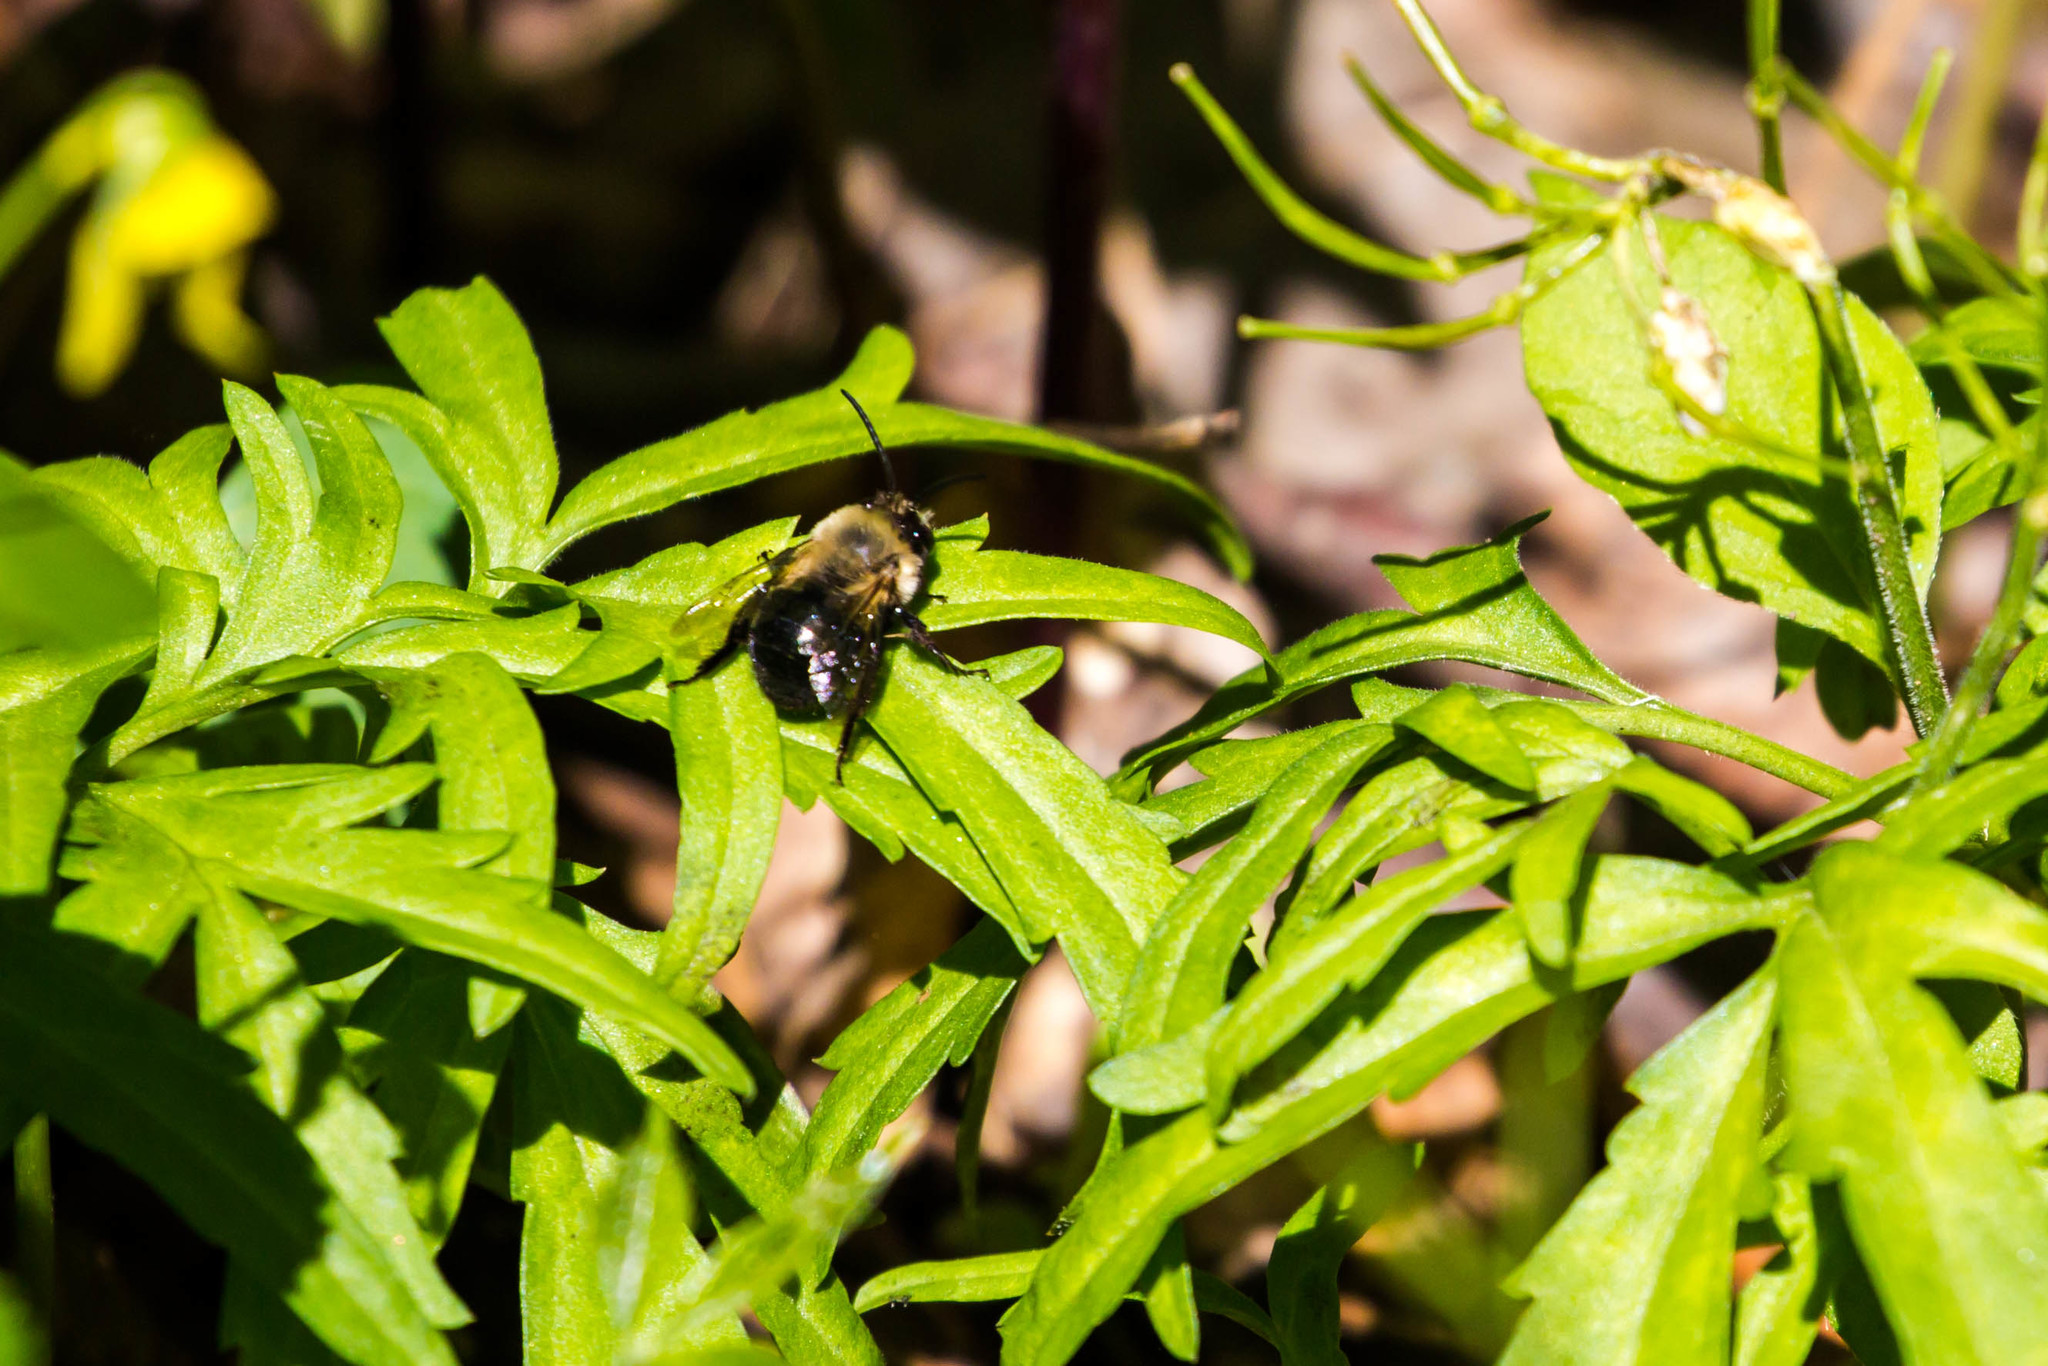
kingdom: Animalia
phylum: Arthropoda
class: Insecta
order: Hymenoptera
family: Apidae
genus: Habropoda
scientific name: Habropoda laboriosa
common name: Southeastern blueberry bee
